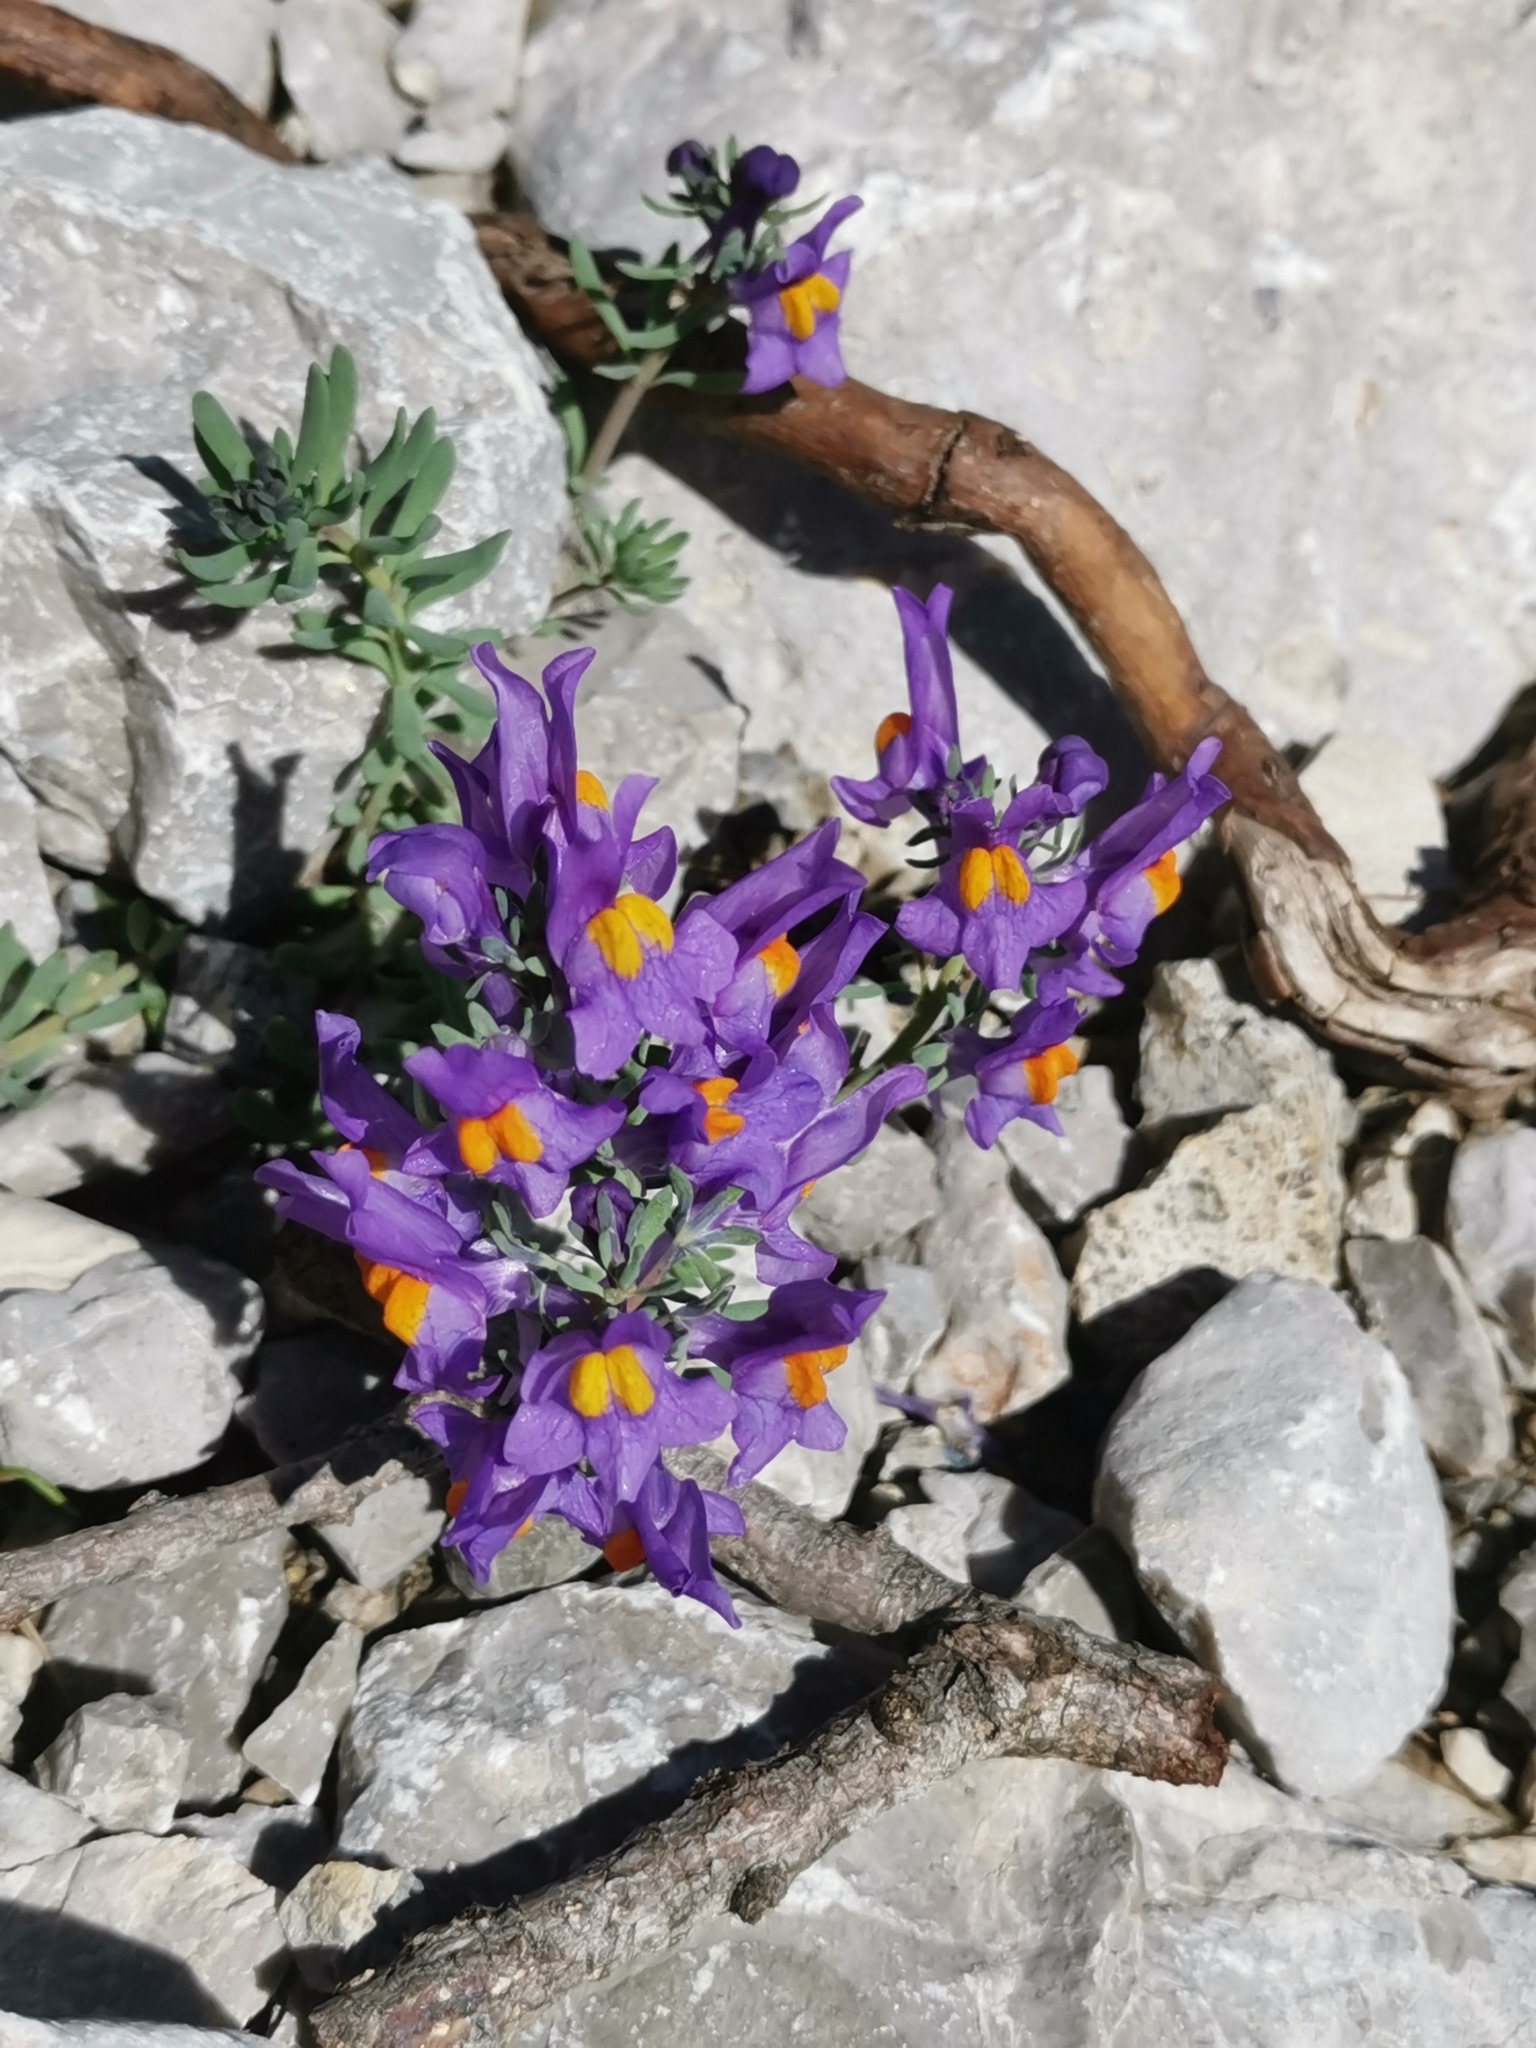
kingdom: Plantae
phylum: Tracheophyta
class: Magnoliopsida
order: Lamiales
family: Plantaginaceae
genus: Linaria
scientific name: Linaria alpina
